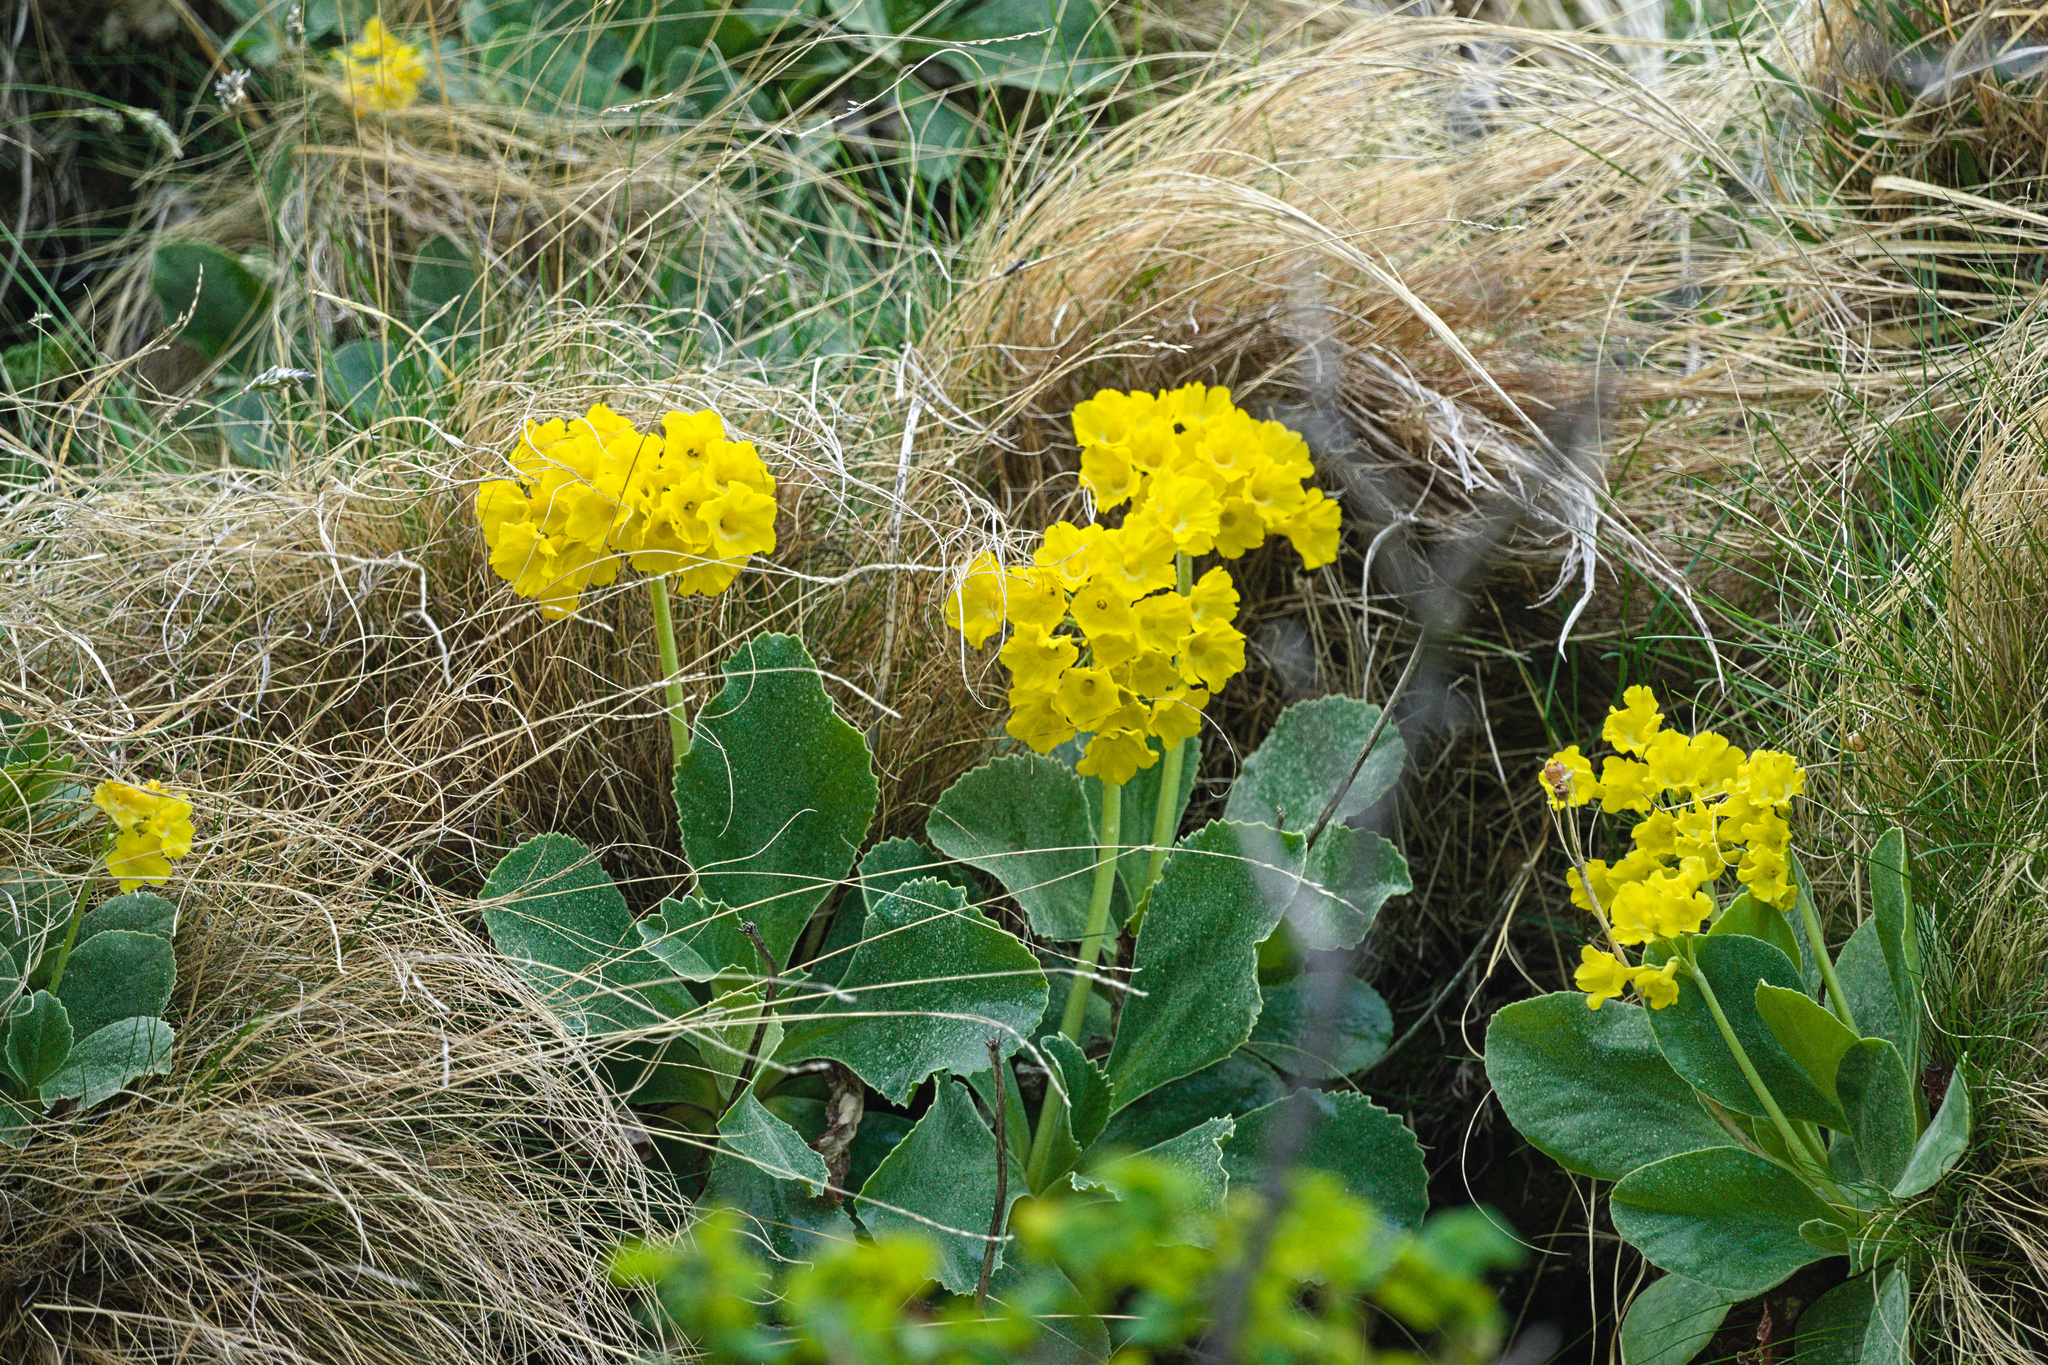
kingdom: Plantae
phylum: Tracheophyta
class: Magnoliopsida
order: Ericales
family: Primulaceae
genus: Primula
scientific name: Primula auricula
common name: Auricula
